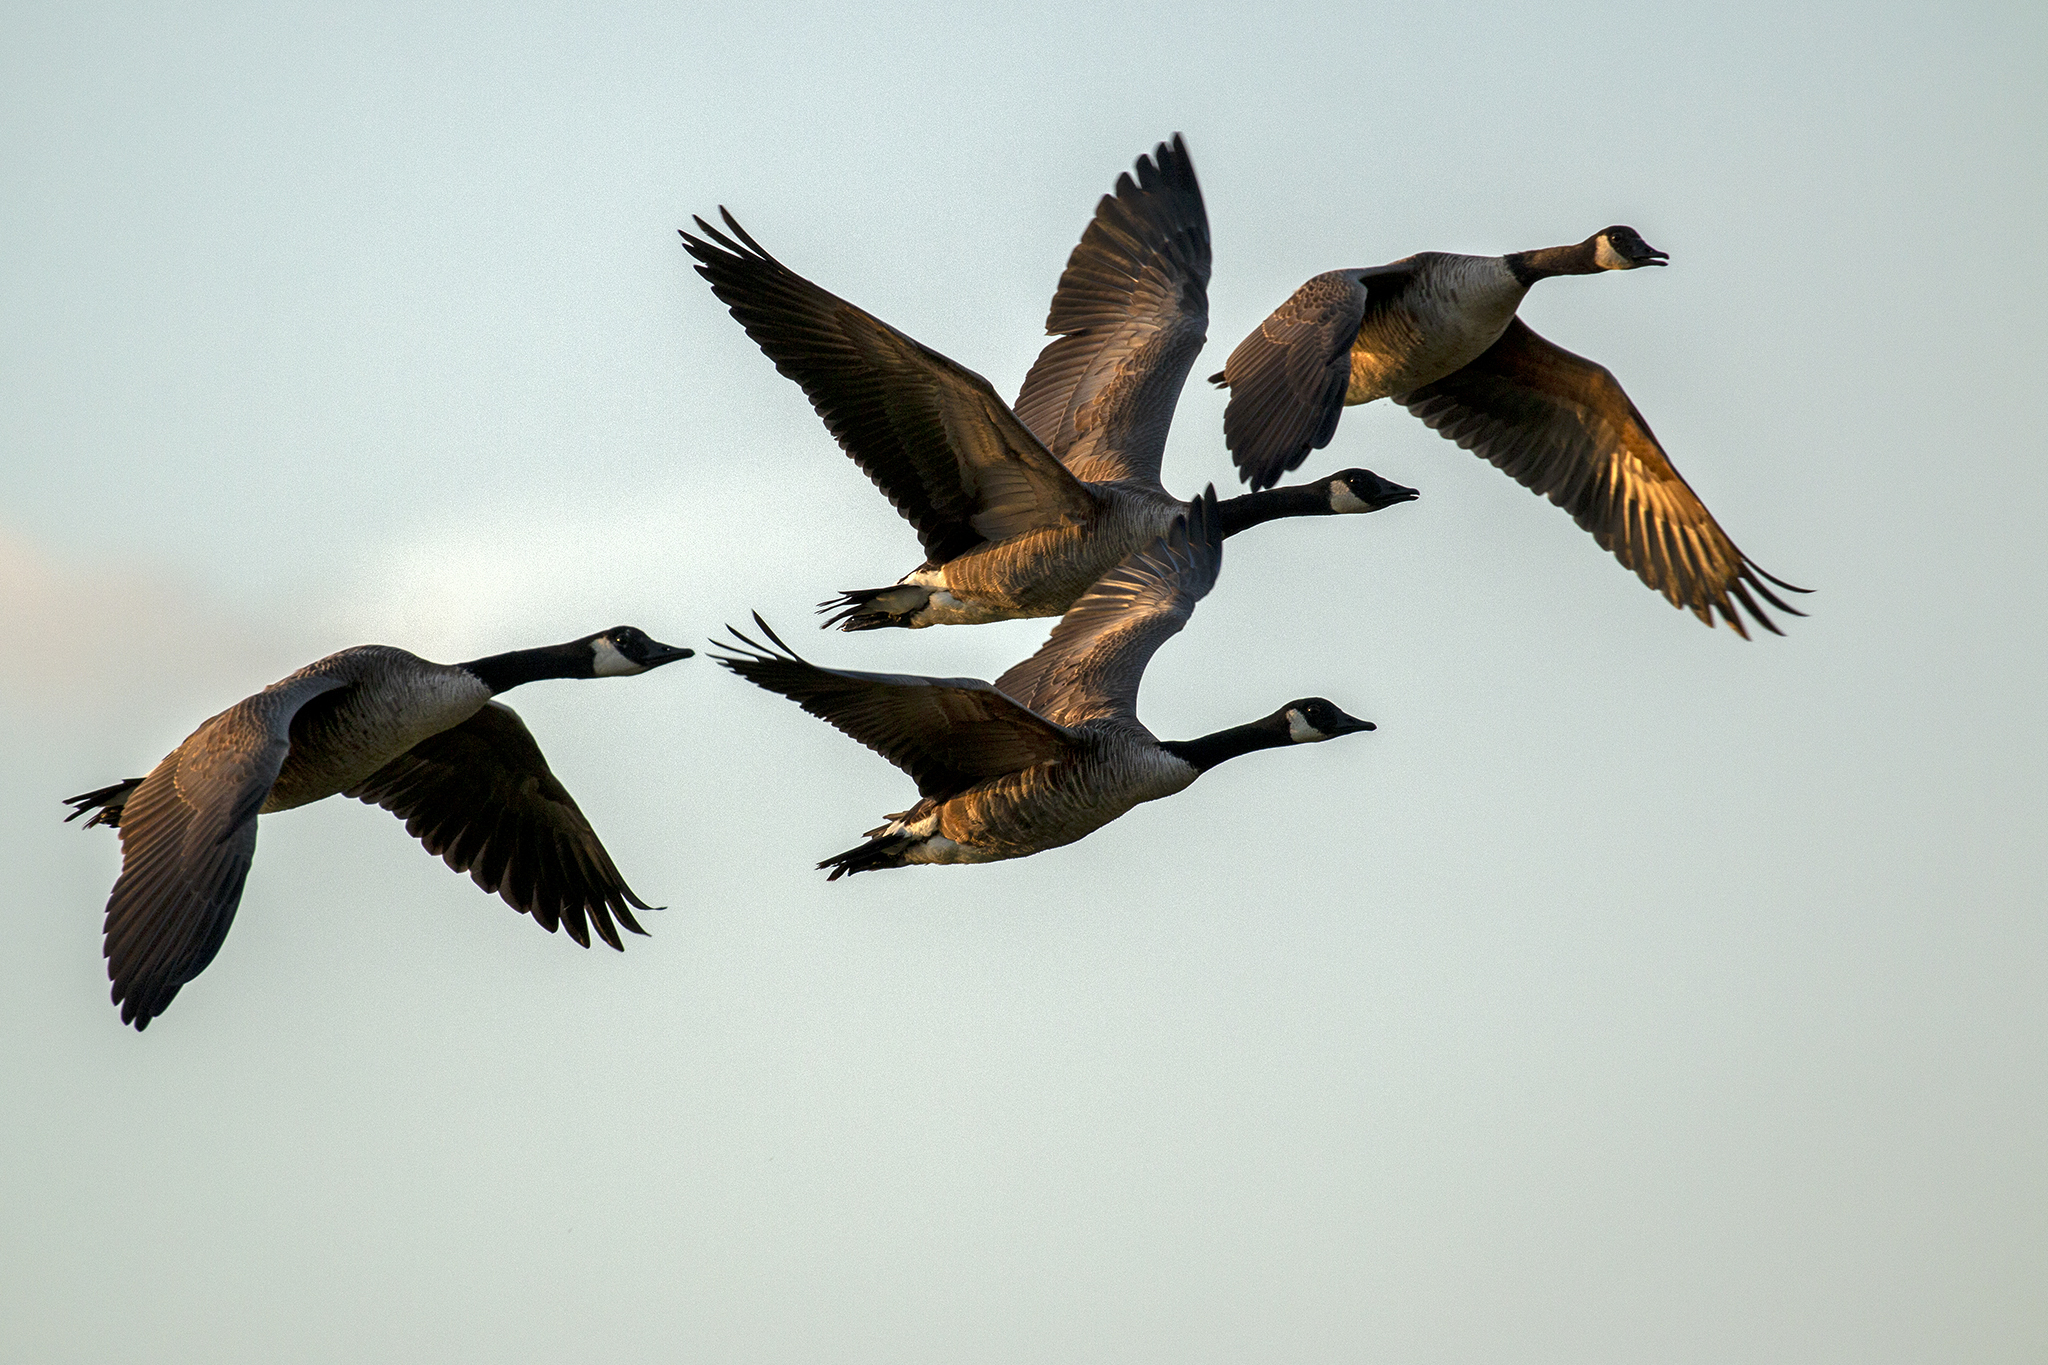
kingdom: Animalia
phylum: Chordata
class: Aves
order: Anseriformes
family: Anatidae
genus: Branta
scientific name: Branta canadensis
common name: Canada goose
